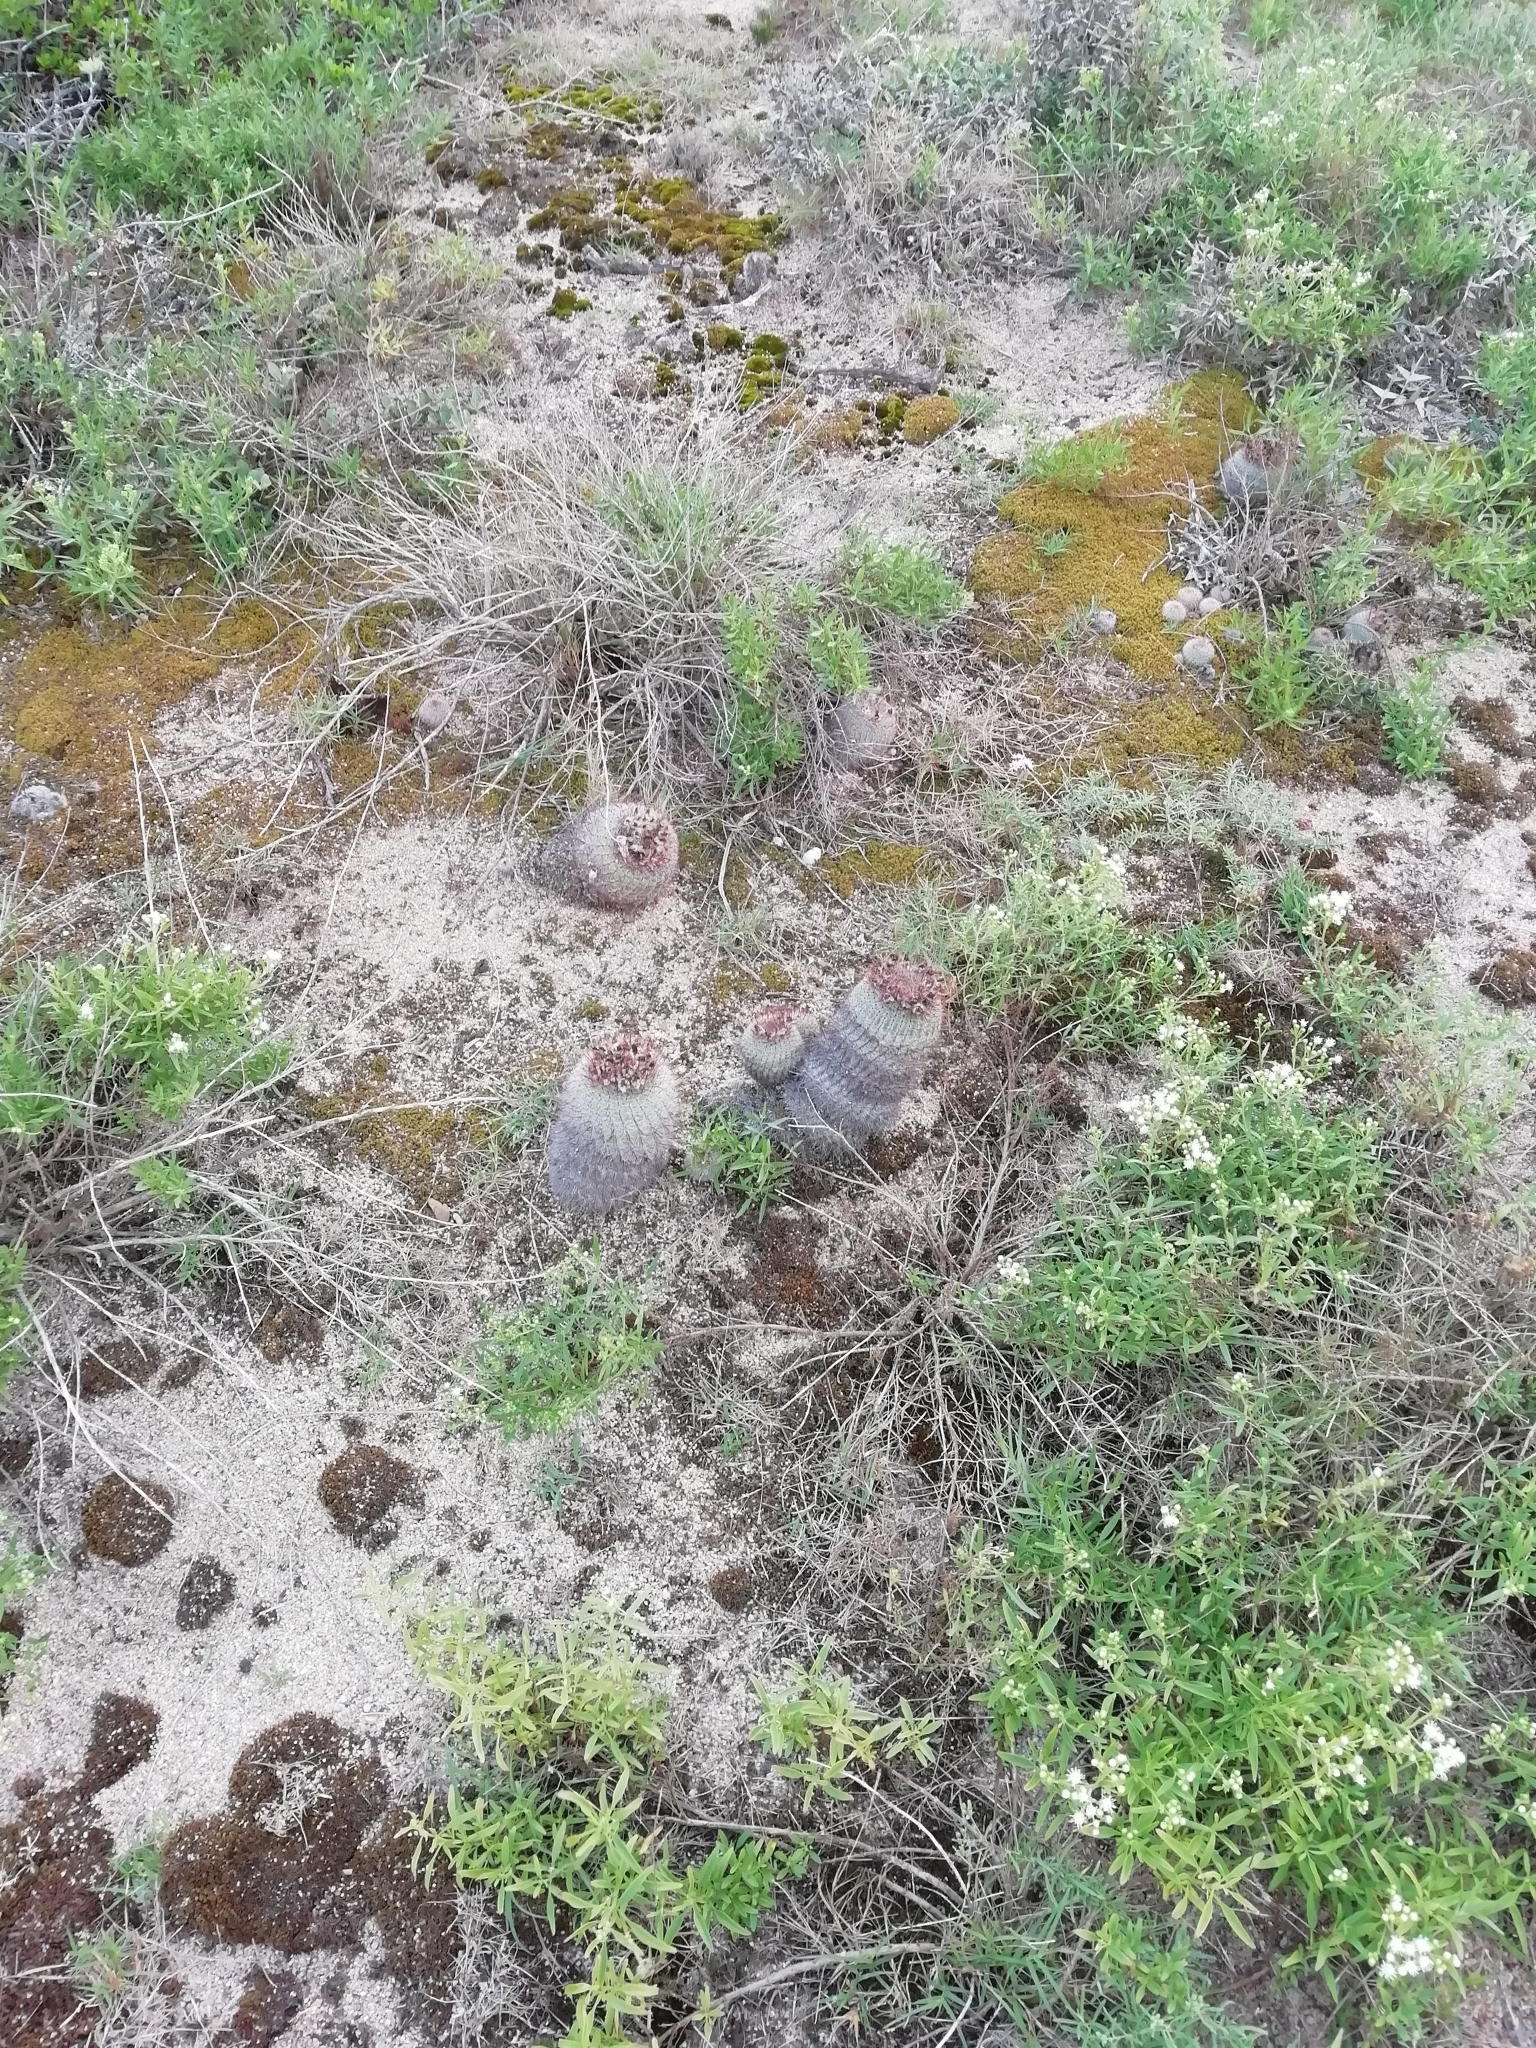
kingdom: Plantae
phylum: Tracheophyta
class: Magnoliopsida
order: Caryophyllales
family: Cactaceae
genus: Parodia
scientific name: Parodia scopa
